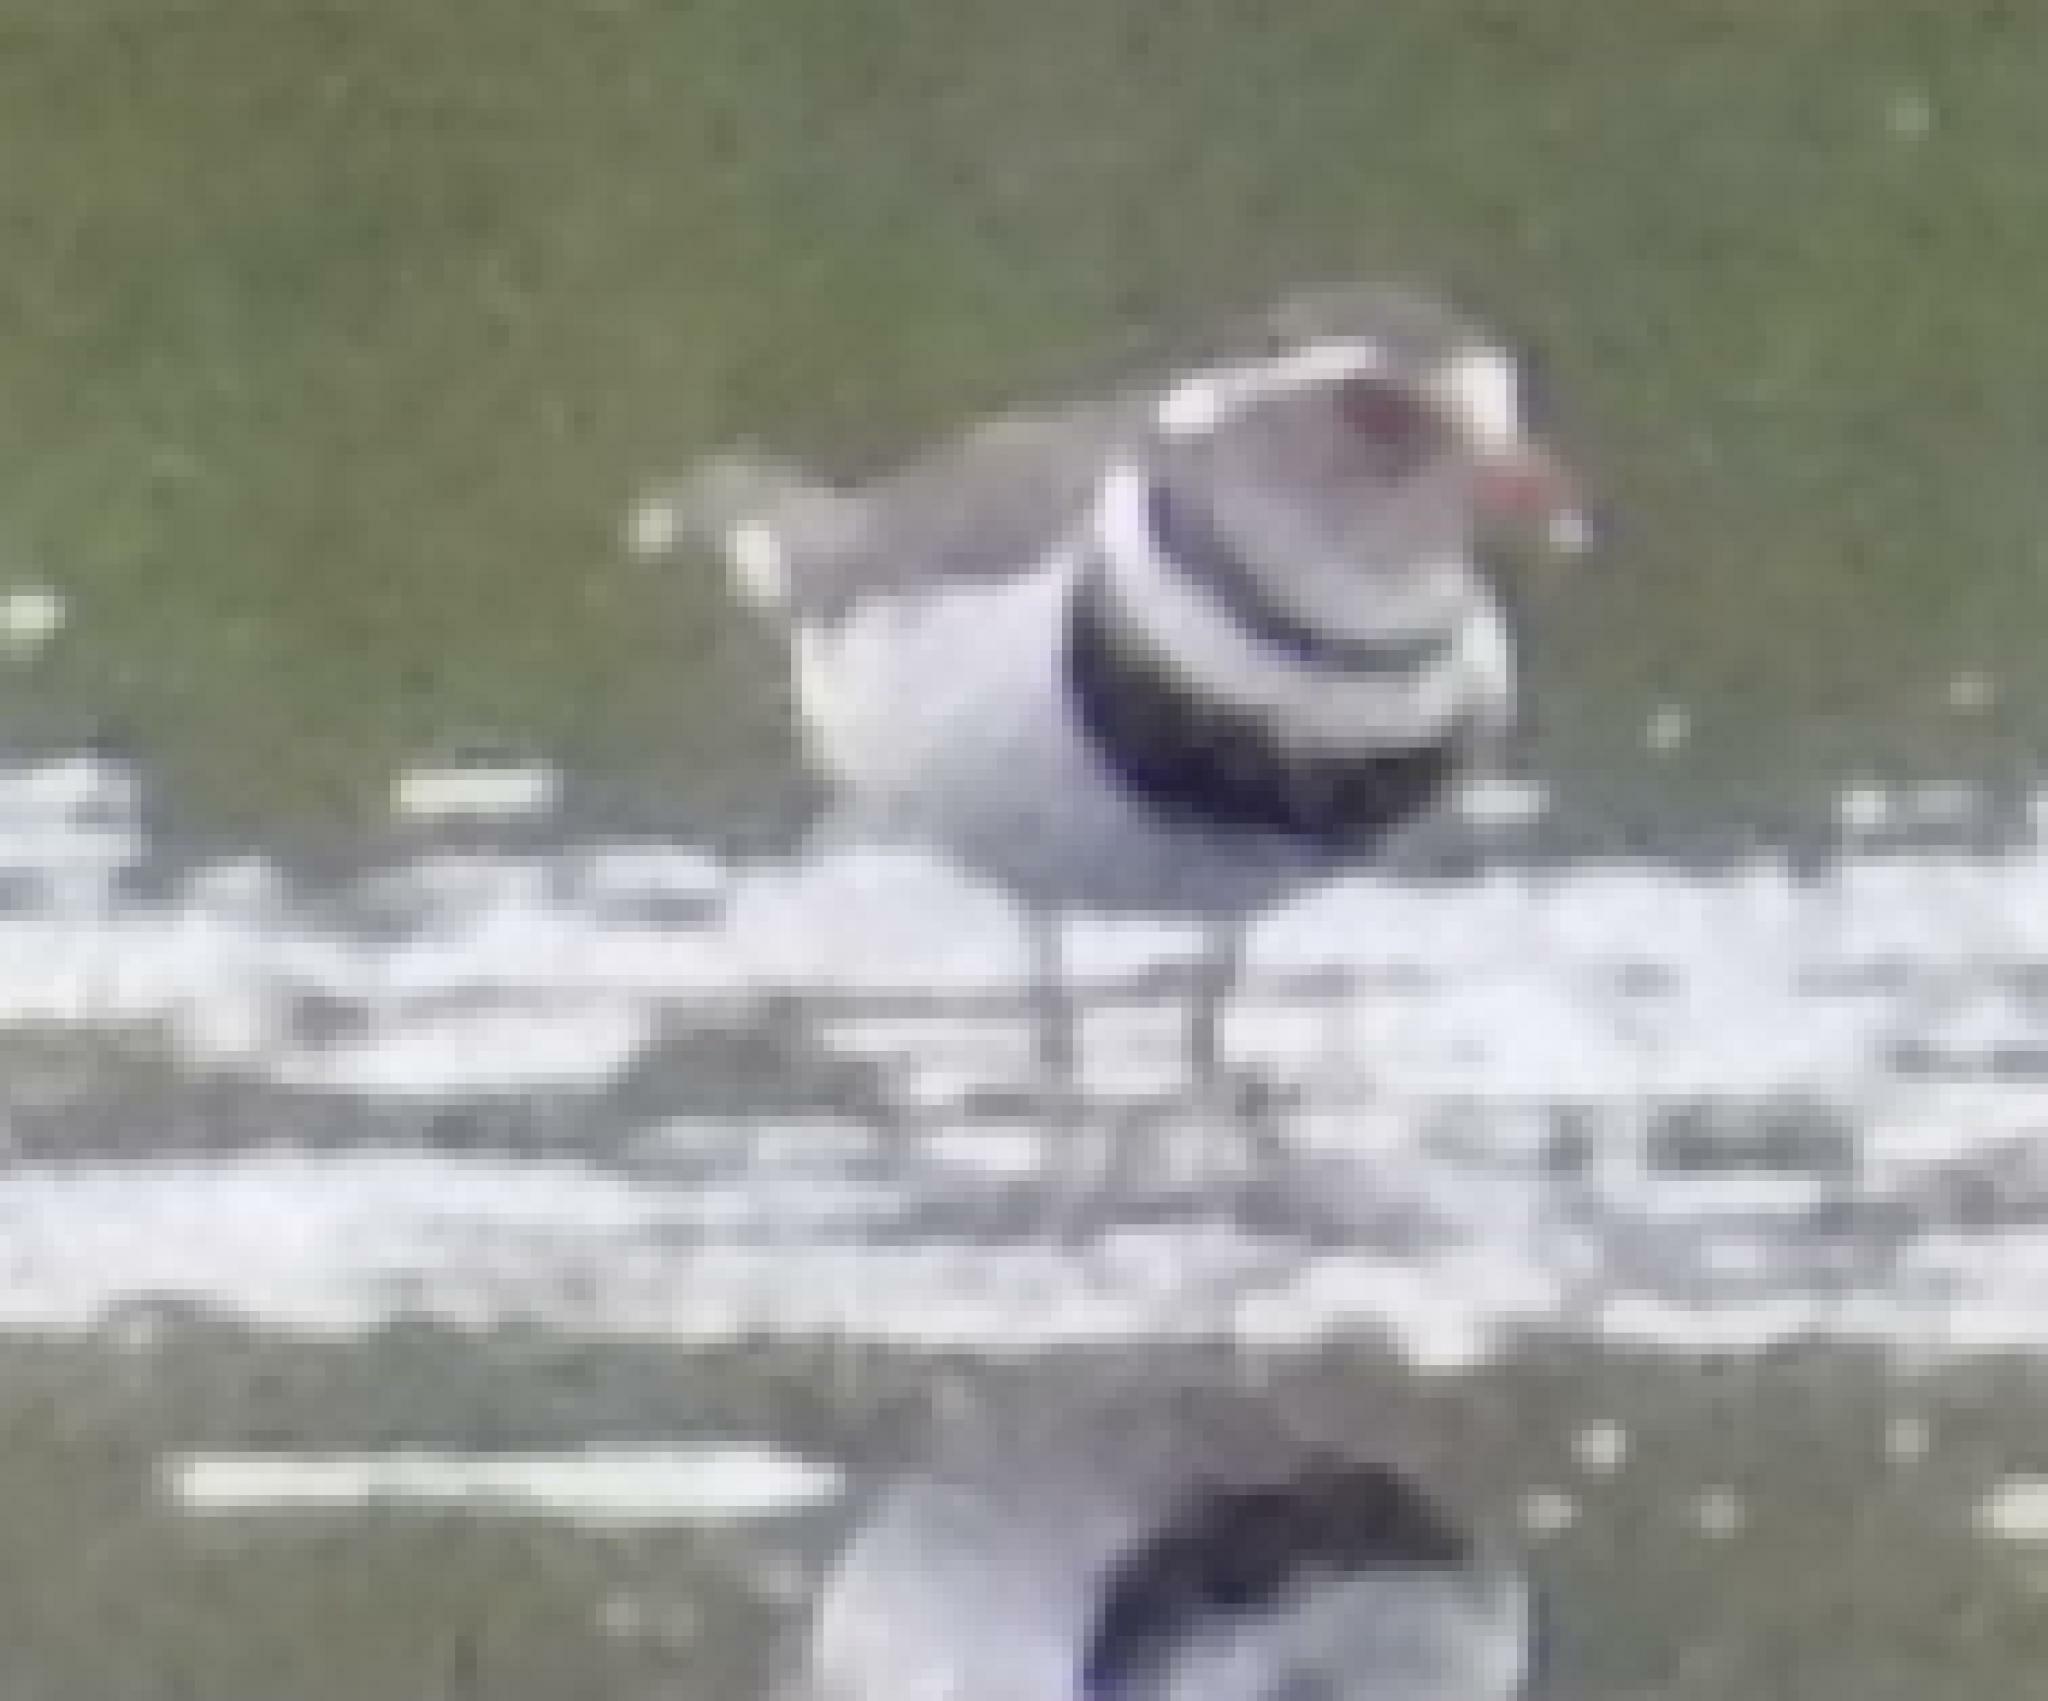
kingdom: Animalia
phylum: Chordata
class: Aves
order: Charadriiformes
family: Charadriidae
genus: Charadrius
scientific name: Charadrius tricollaris
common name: Three-banded plover
